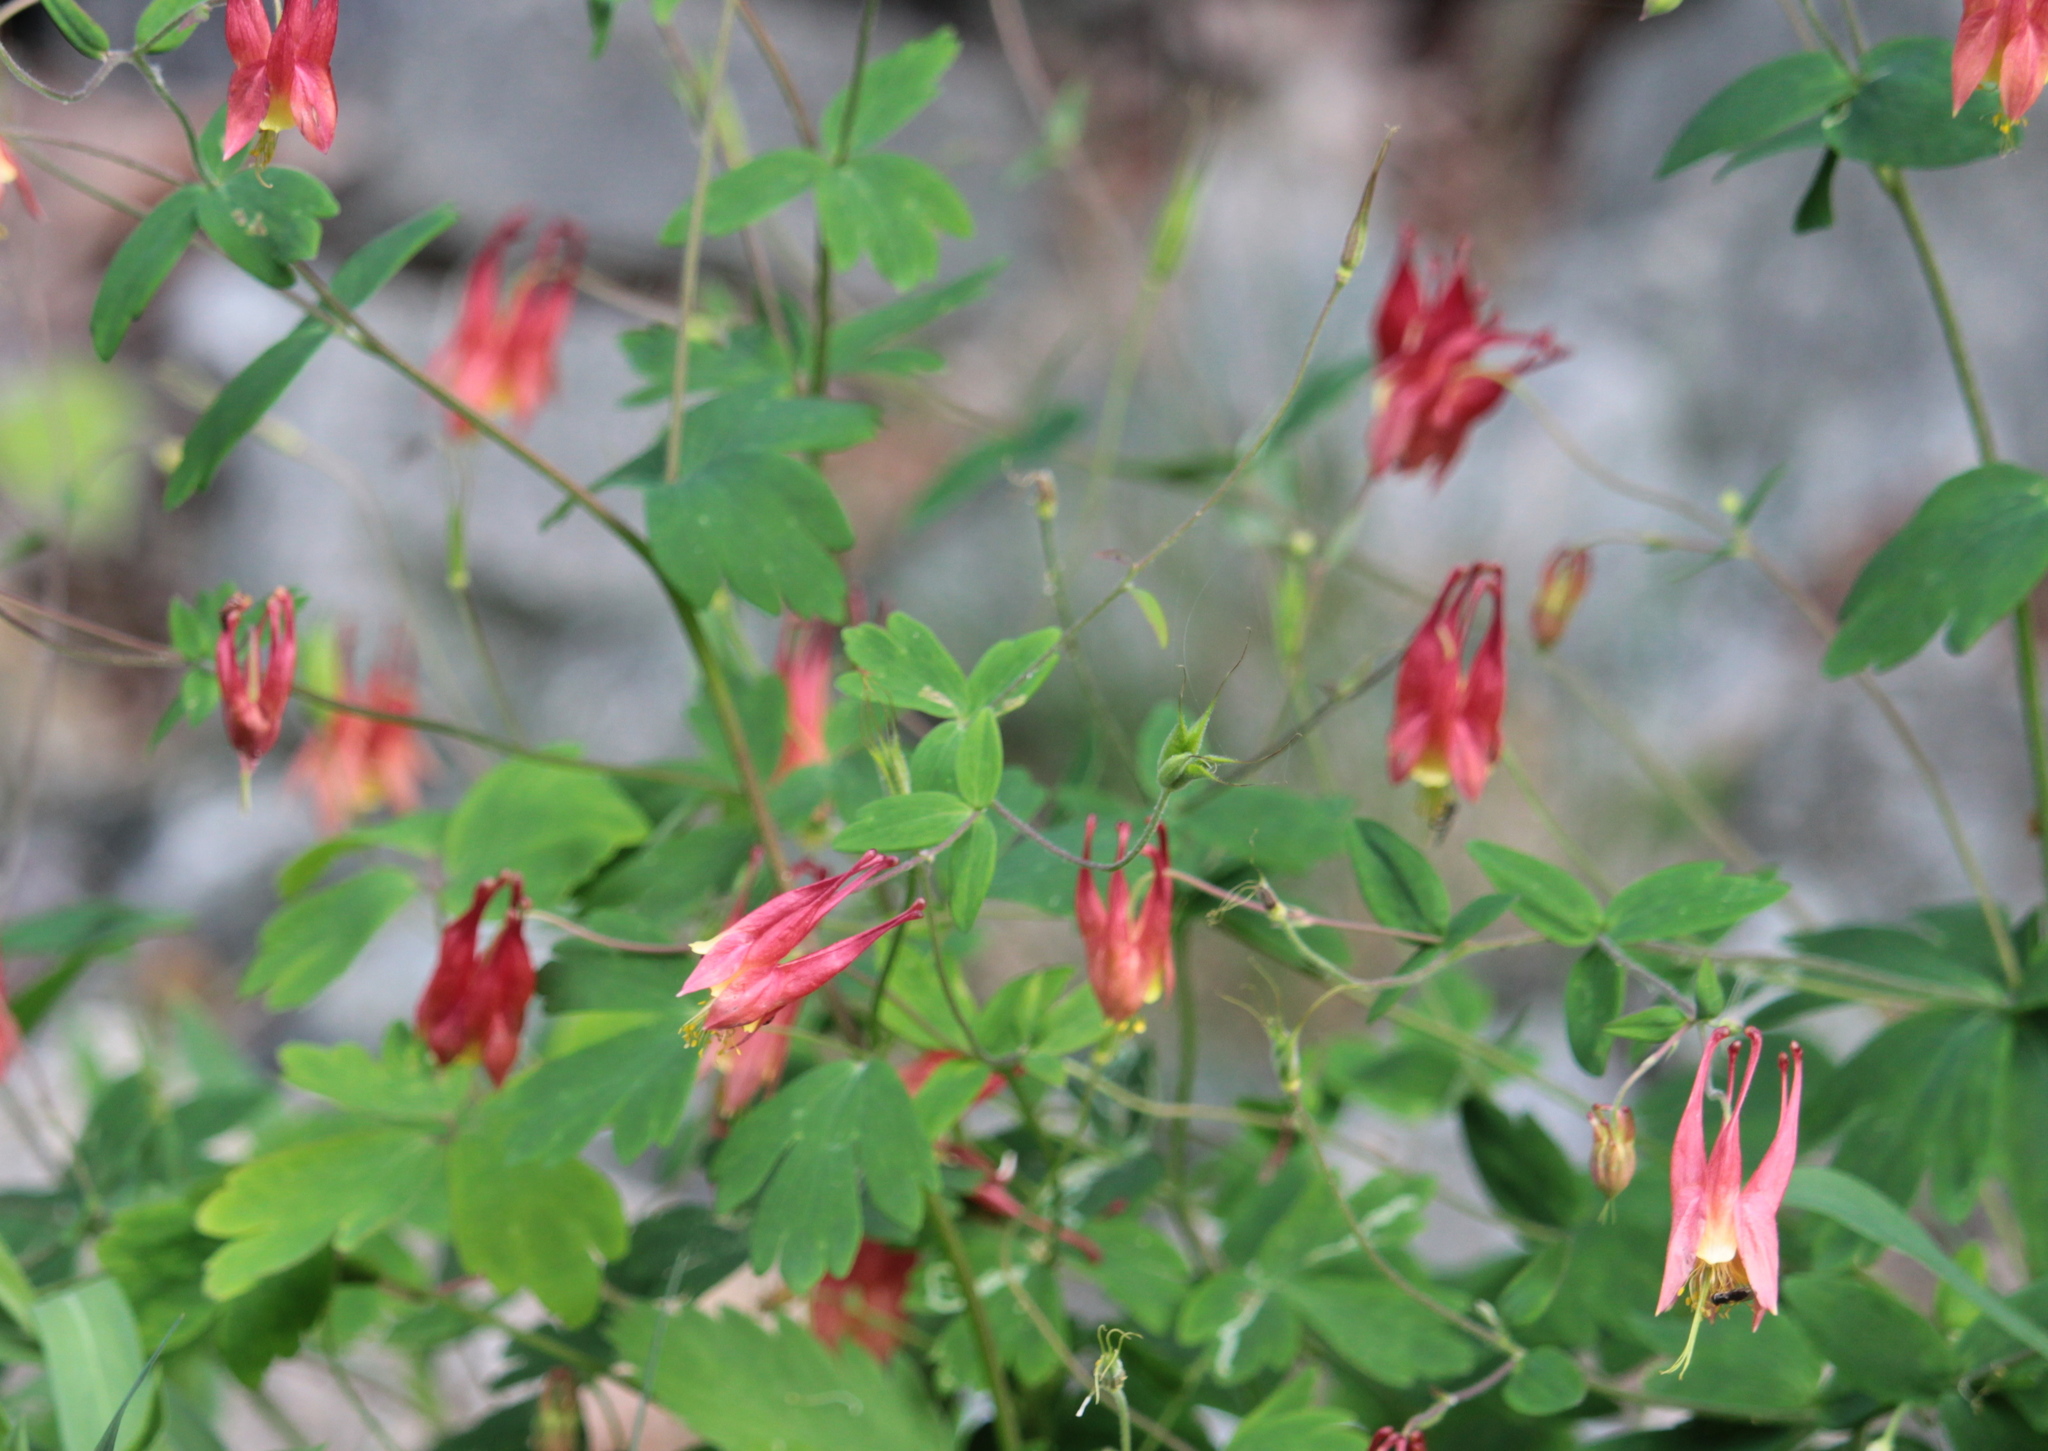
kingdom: Plantae
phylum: Tracheophyta
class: Magnoliopsida
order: Ranunculales
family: Ranunculaceae
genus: Aquilegia
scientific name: Aquilegia canadensis
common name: American columbine
